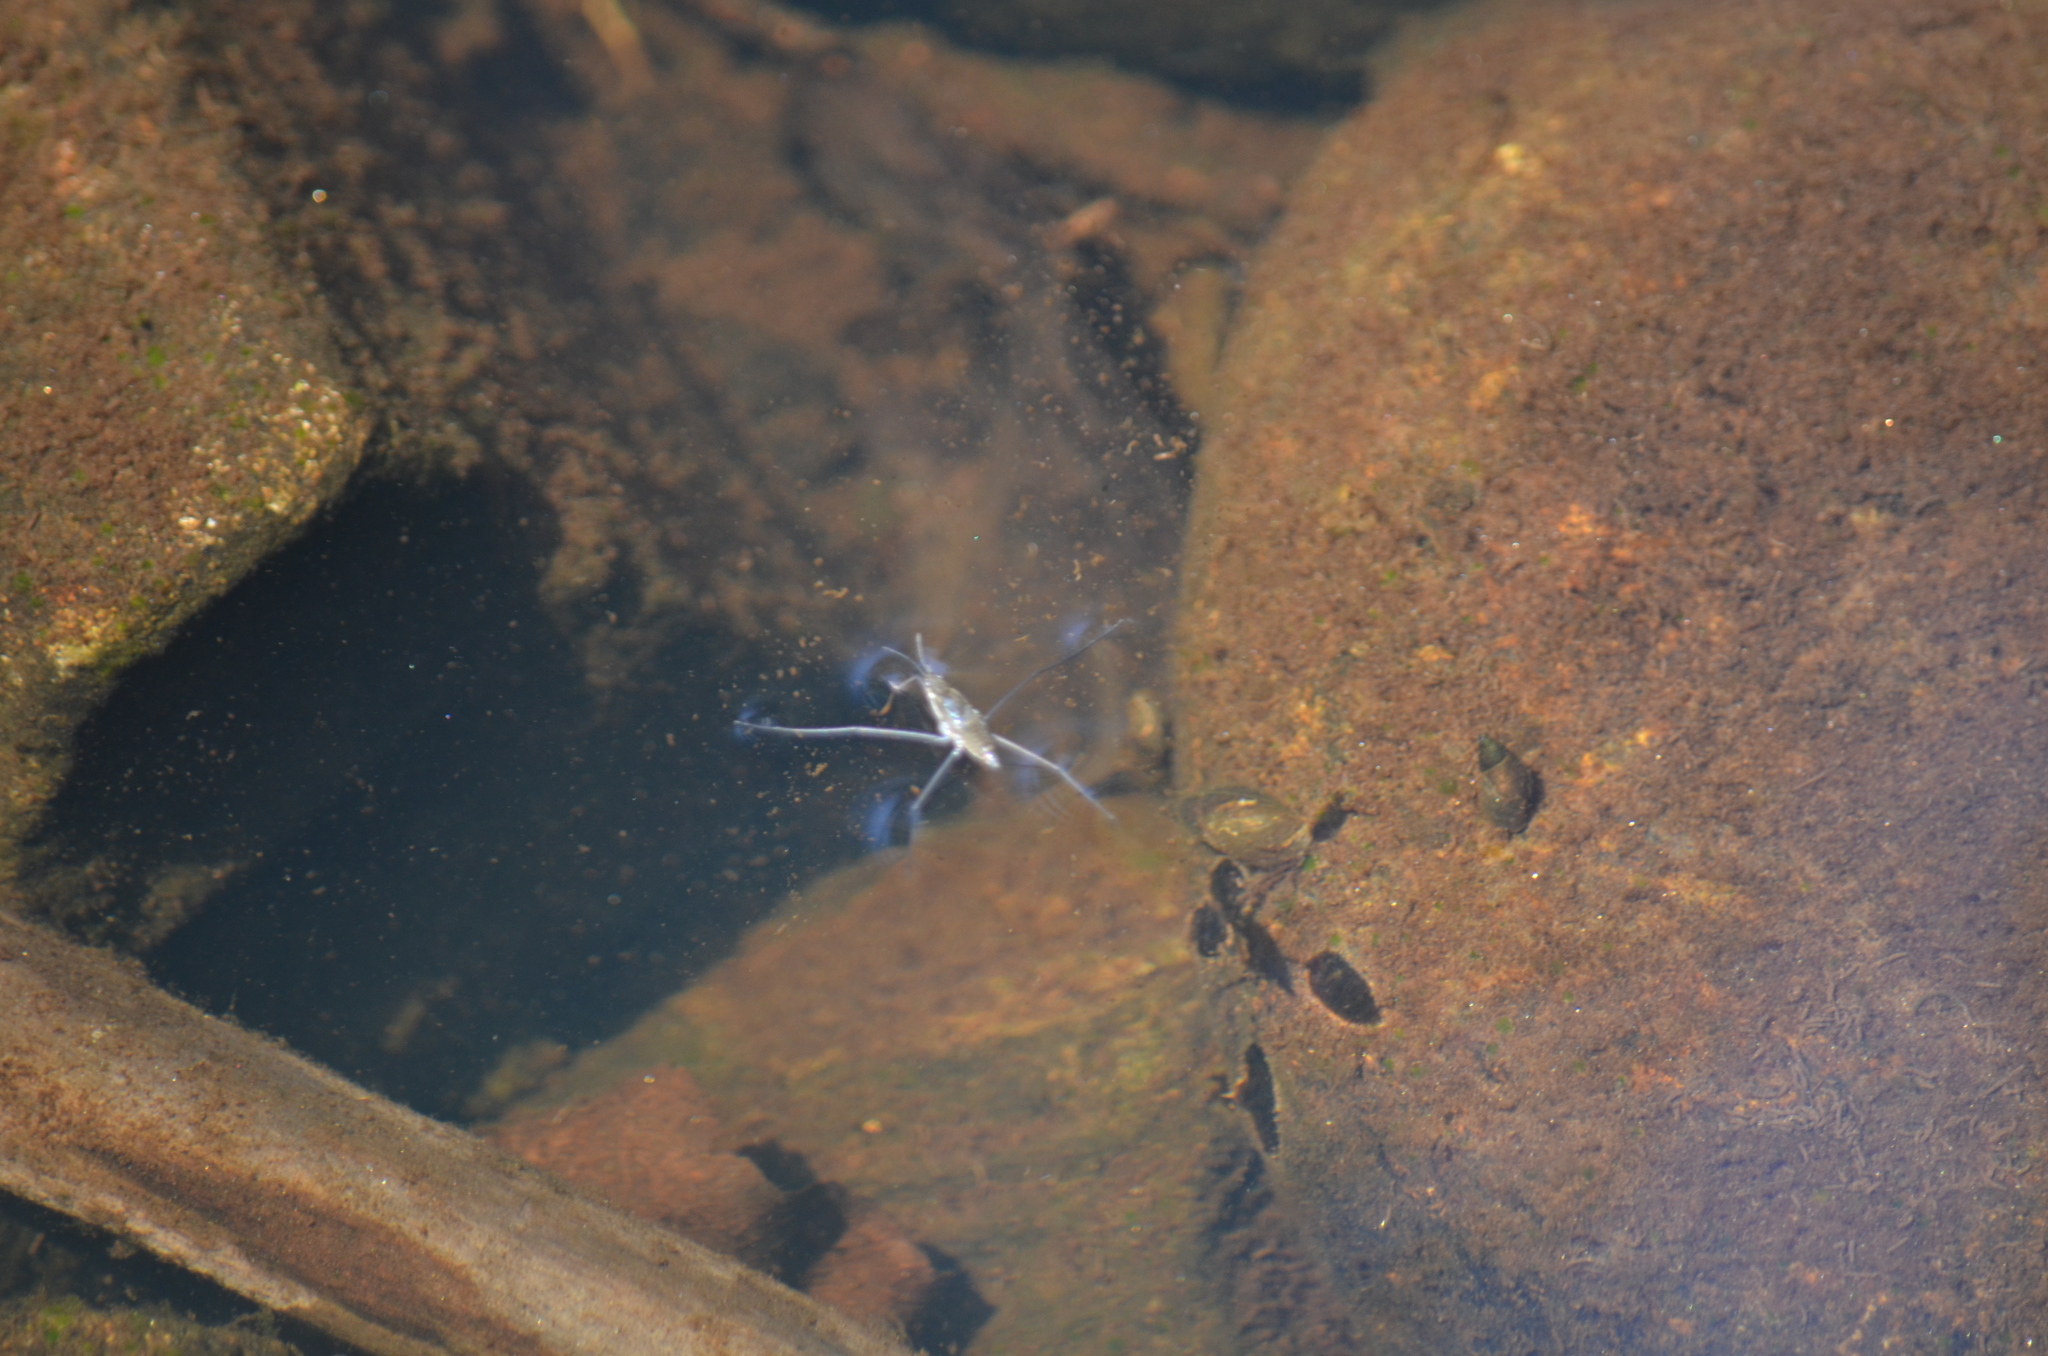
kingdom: Animalia
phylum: Arthropoda
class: Insecta
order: Hemiptera
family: Gerridae
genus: Aquarius
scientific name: Aquarius remigis
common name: Common water strider
